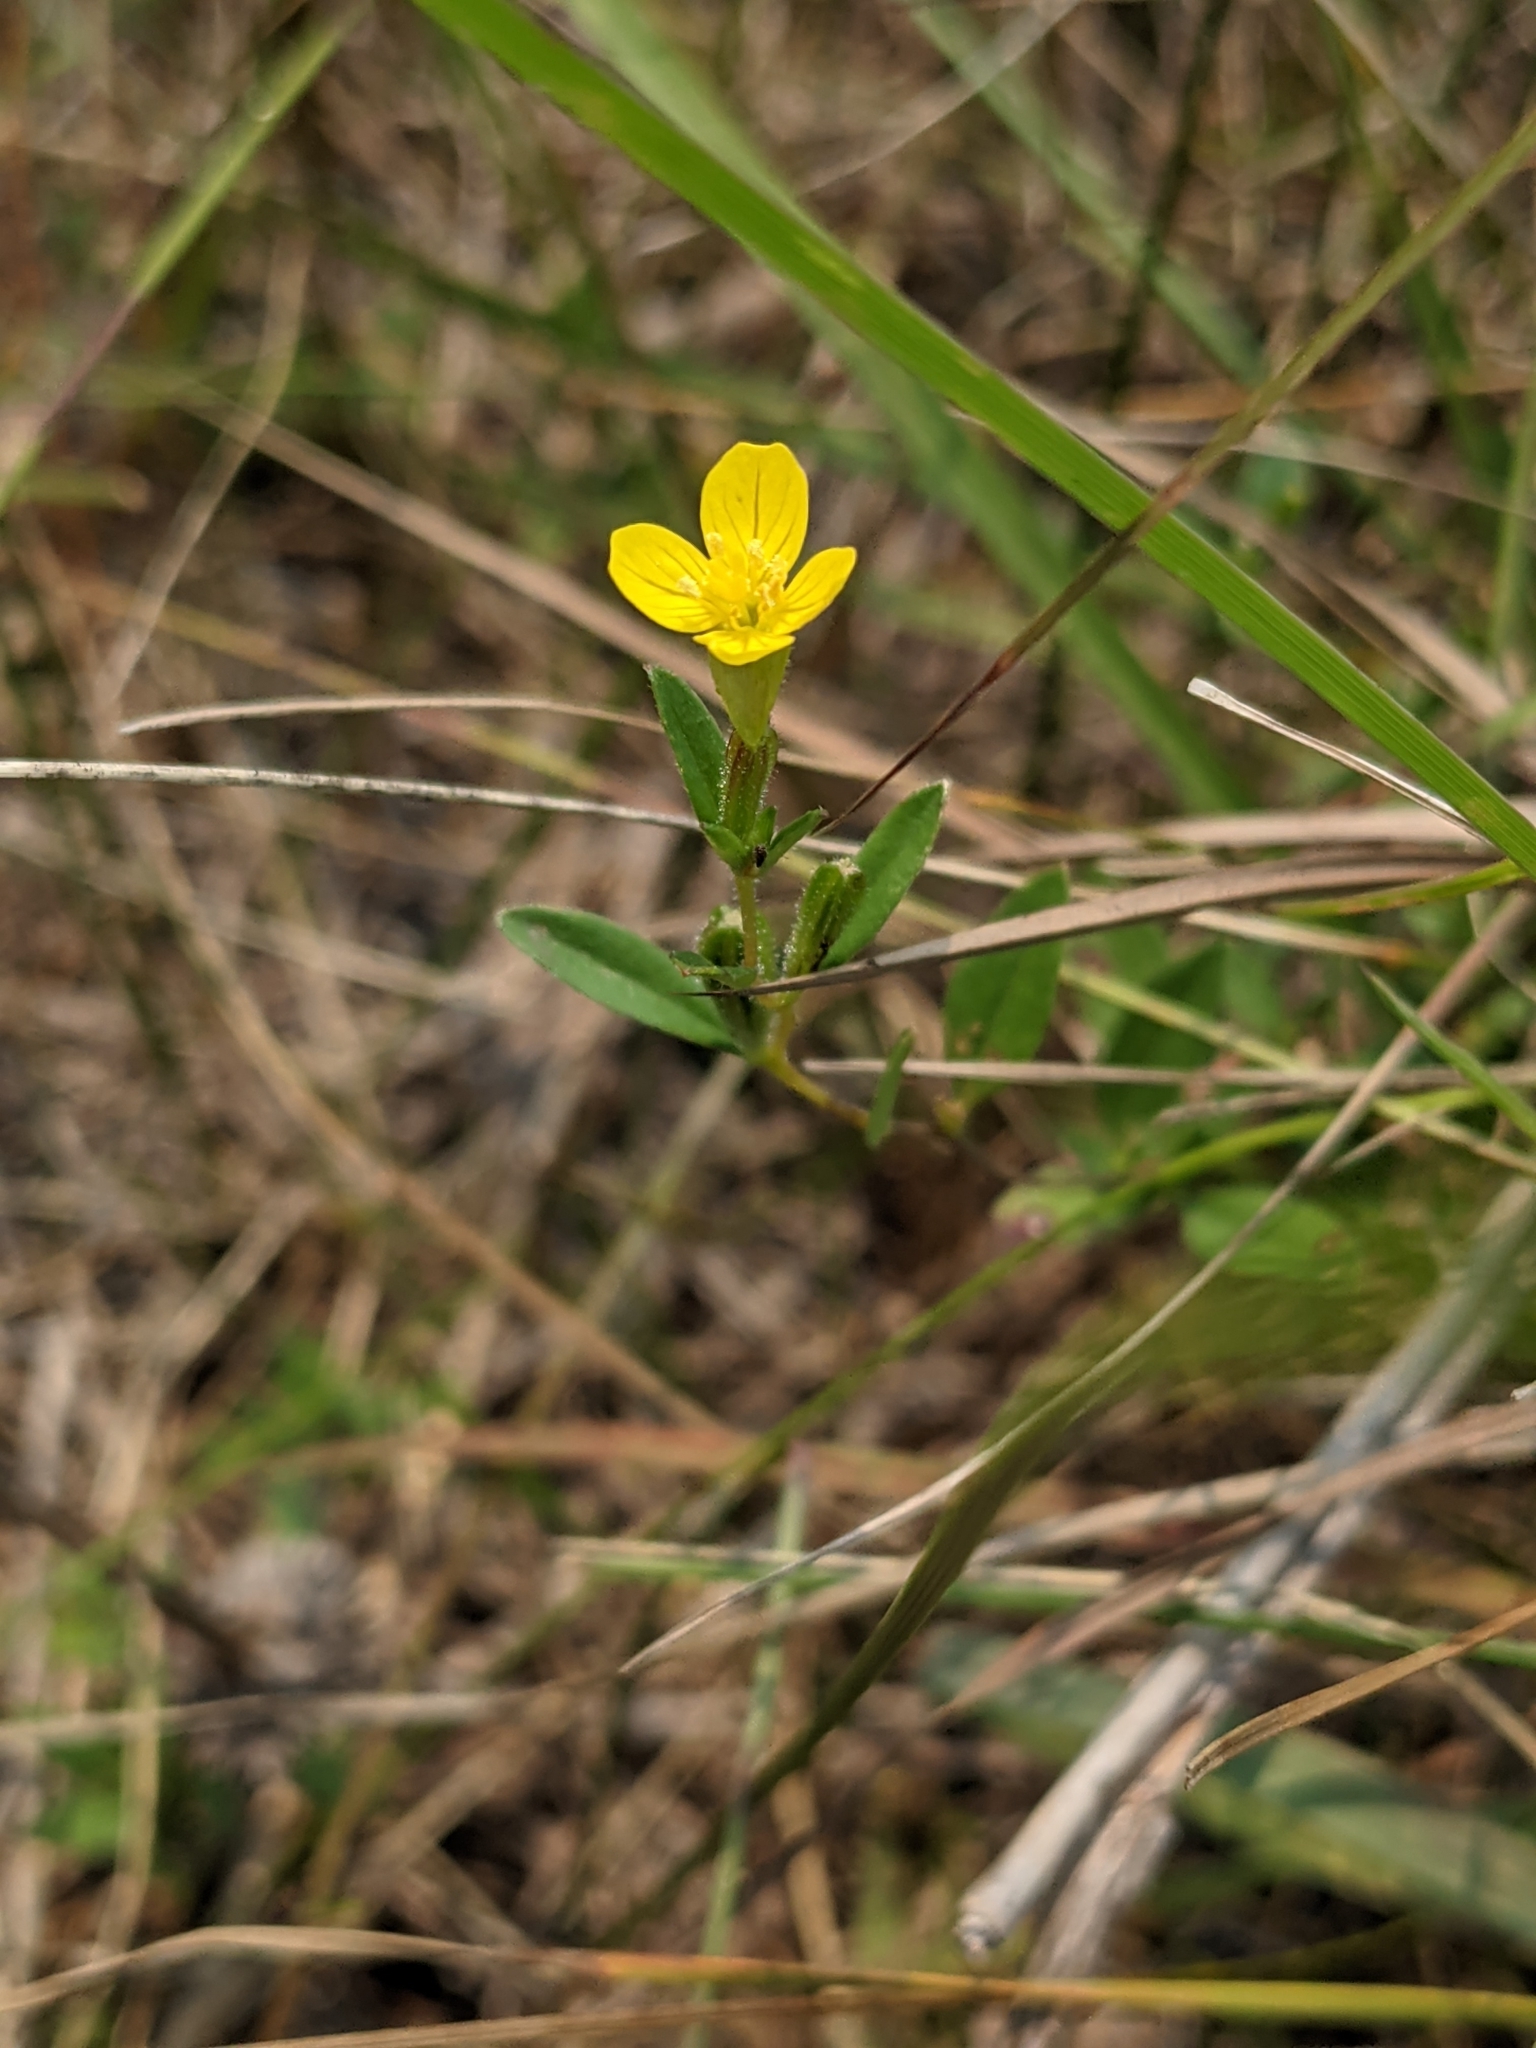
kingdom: Plantae
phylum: Tracheophyta
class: Magnoliopsida
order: Myrtales
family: Onagraceae
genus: Oenothera
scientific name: Oenothera perennis
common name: Small sundrops
